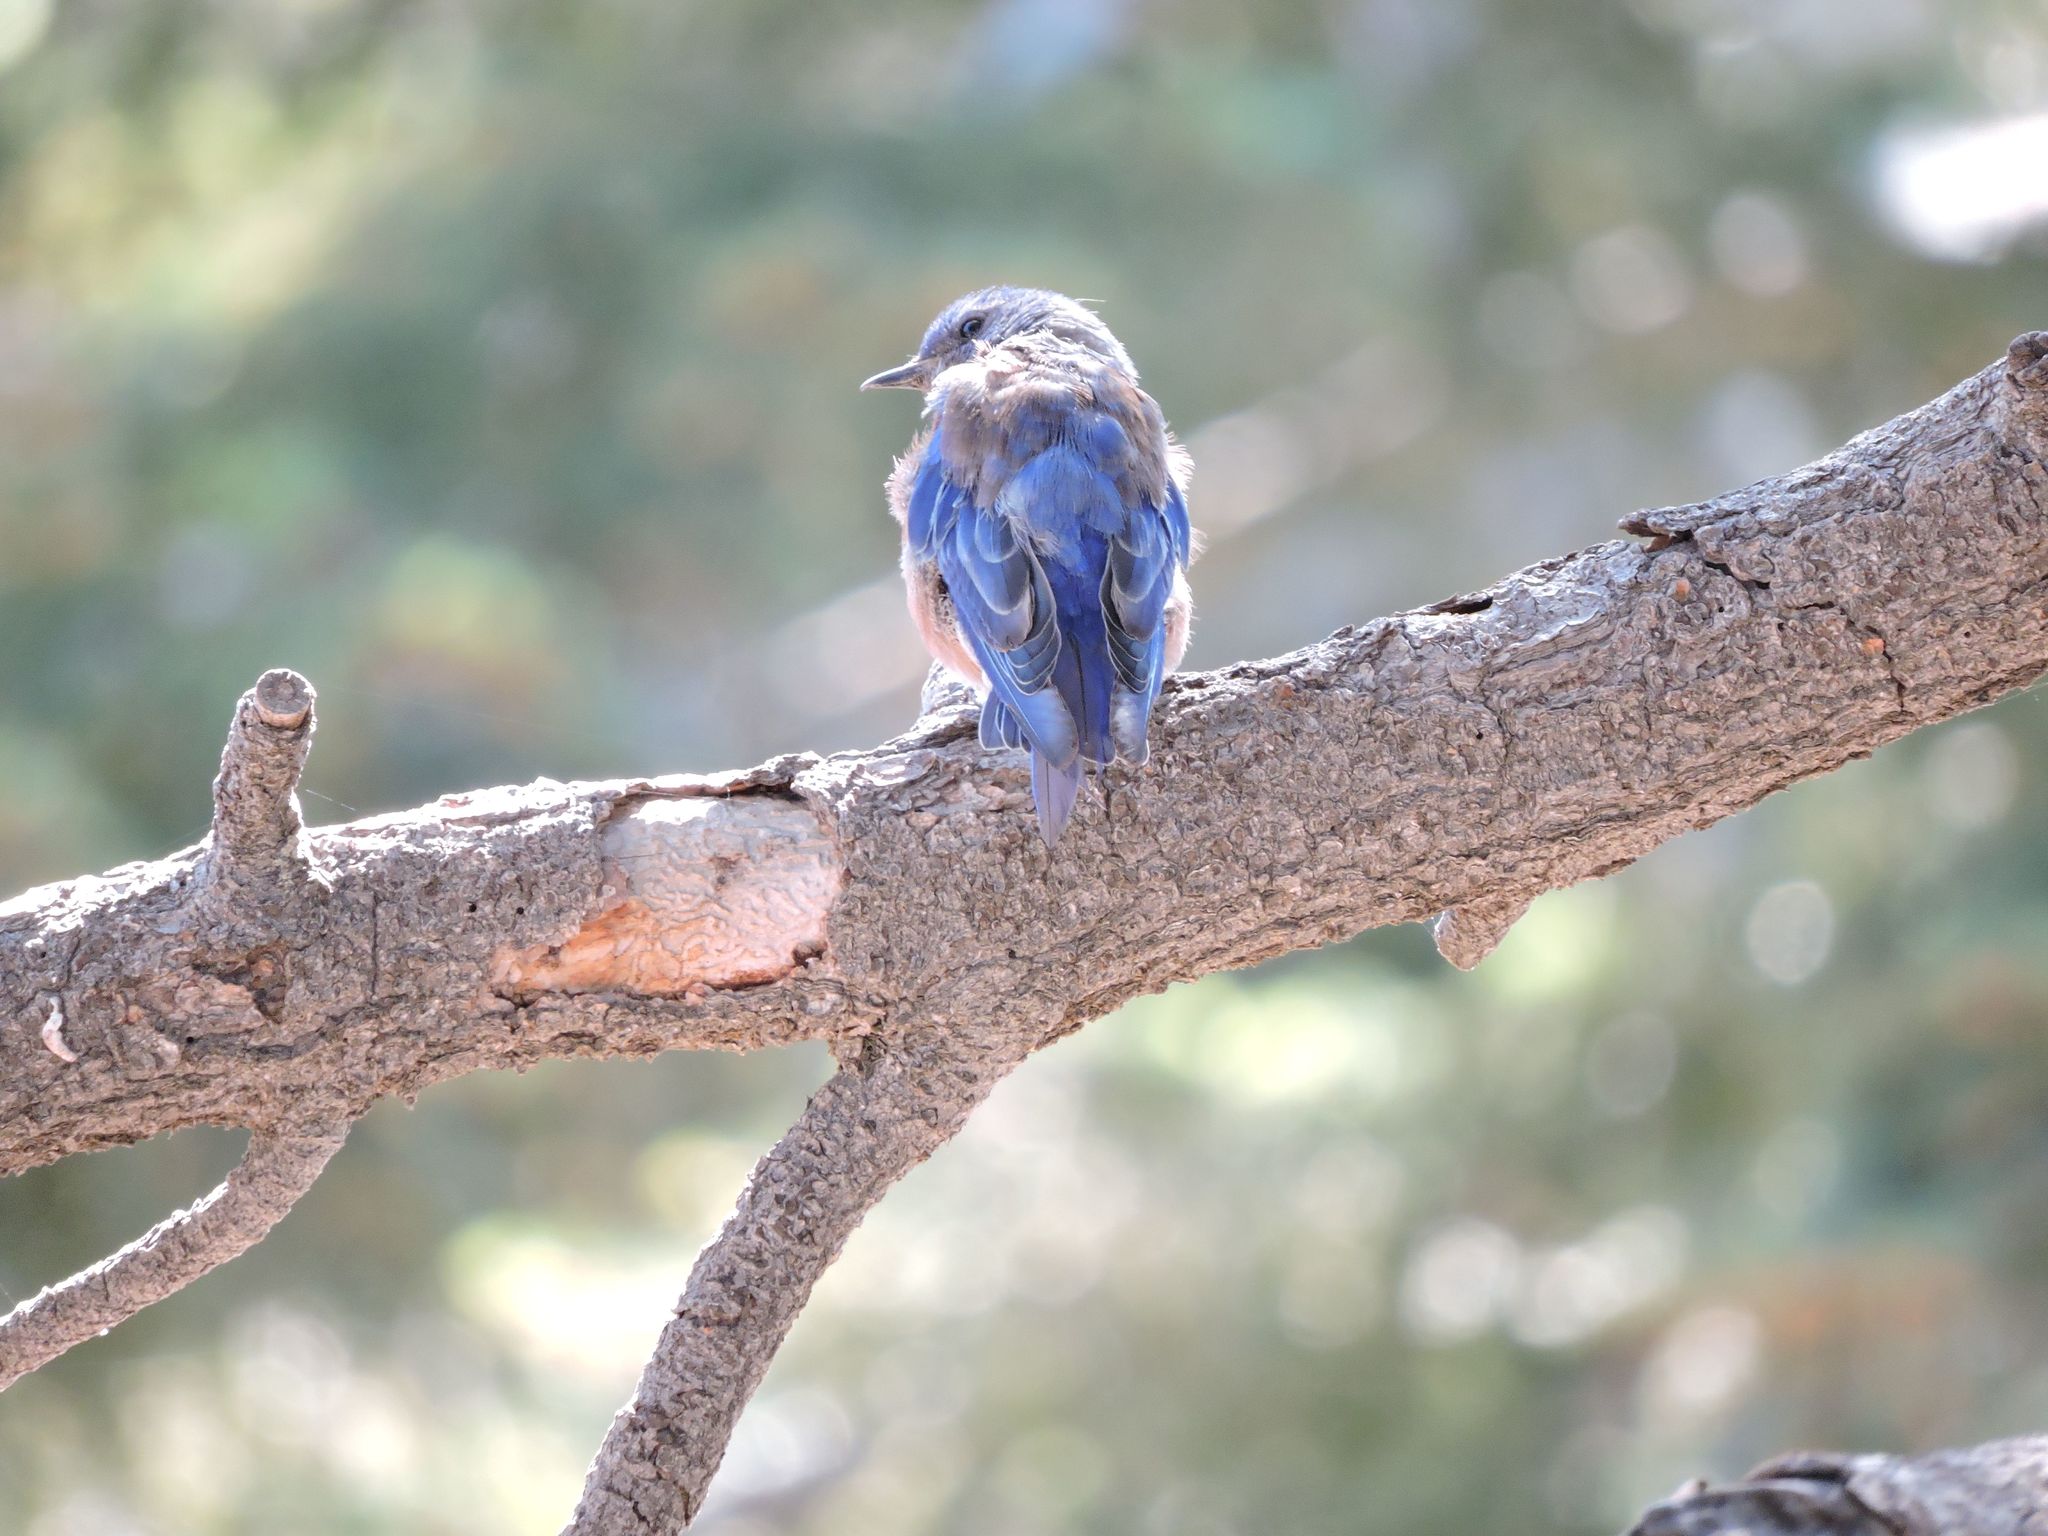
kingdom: Animalia
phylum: Chordata
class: Aves
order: Passeriformes
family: Turdidae
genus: Sialia
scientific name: Sialia mexicana
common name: Western bluebird
